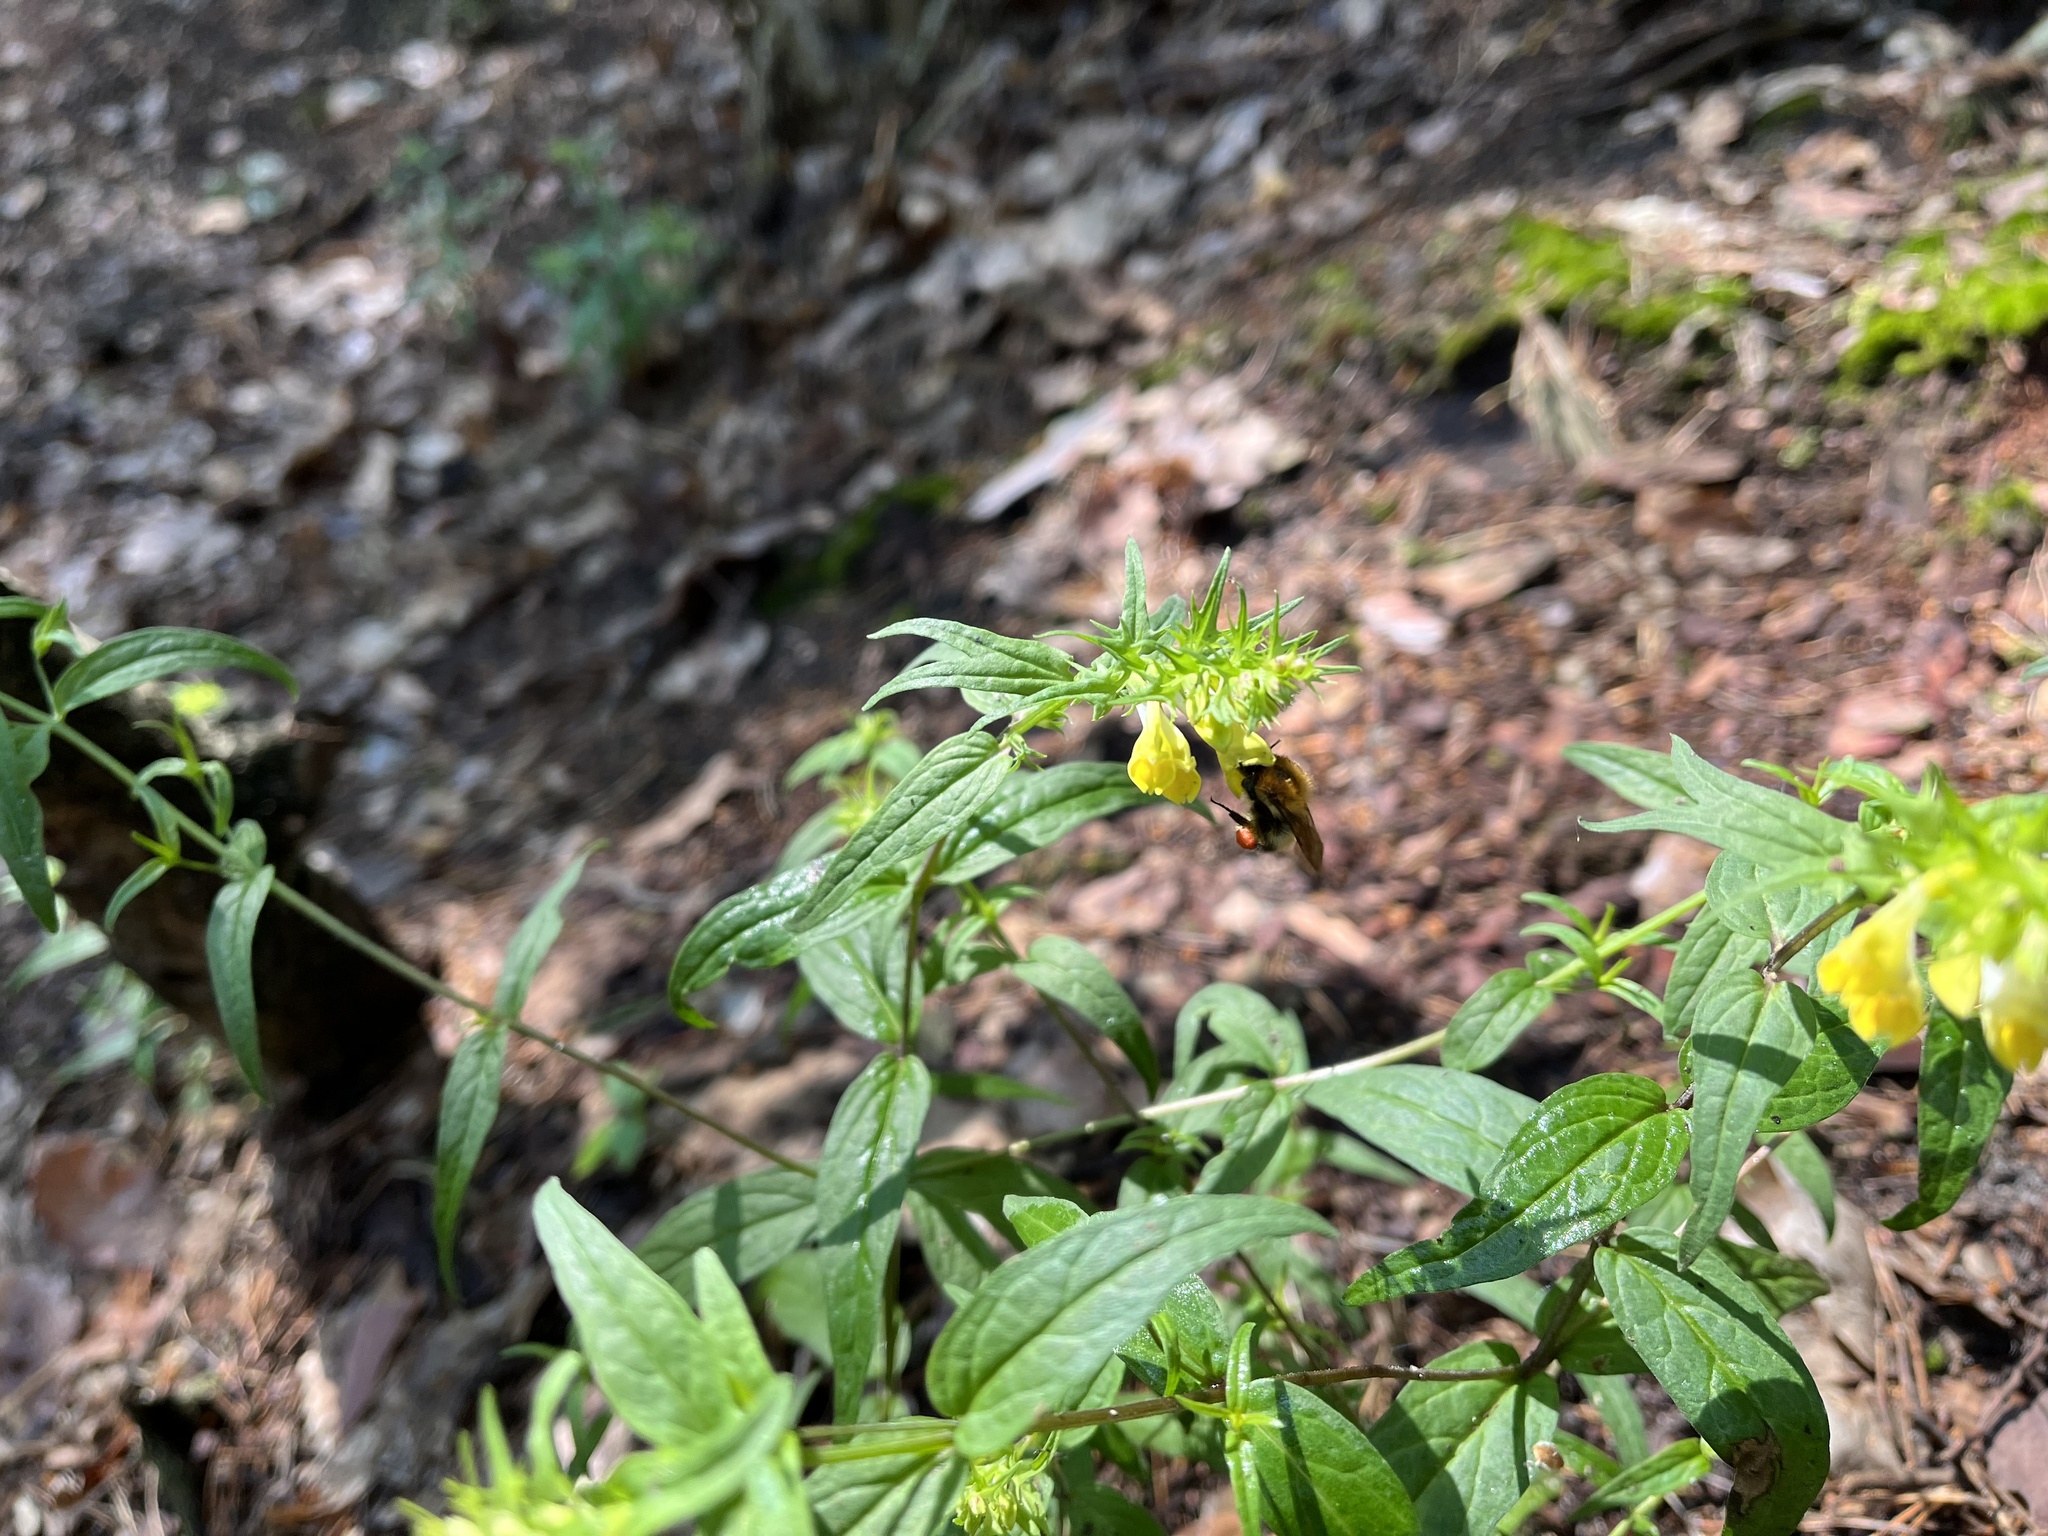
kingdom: Plantae
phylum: Tracheophyta
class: Magnoliopsida
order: Lamiales
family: Orobanchaceae
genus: Melampyrum
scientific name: Melampyrum pratense
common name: Common cow-wheat
